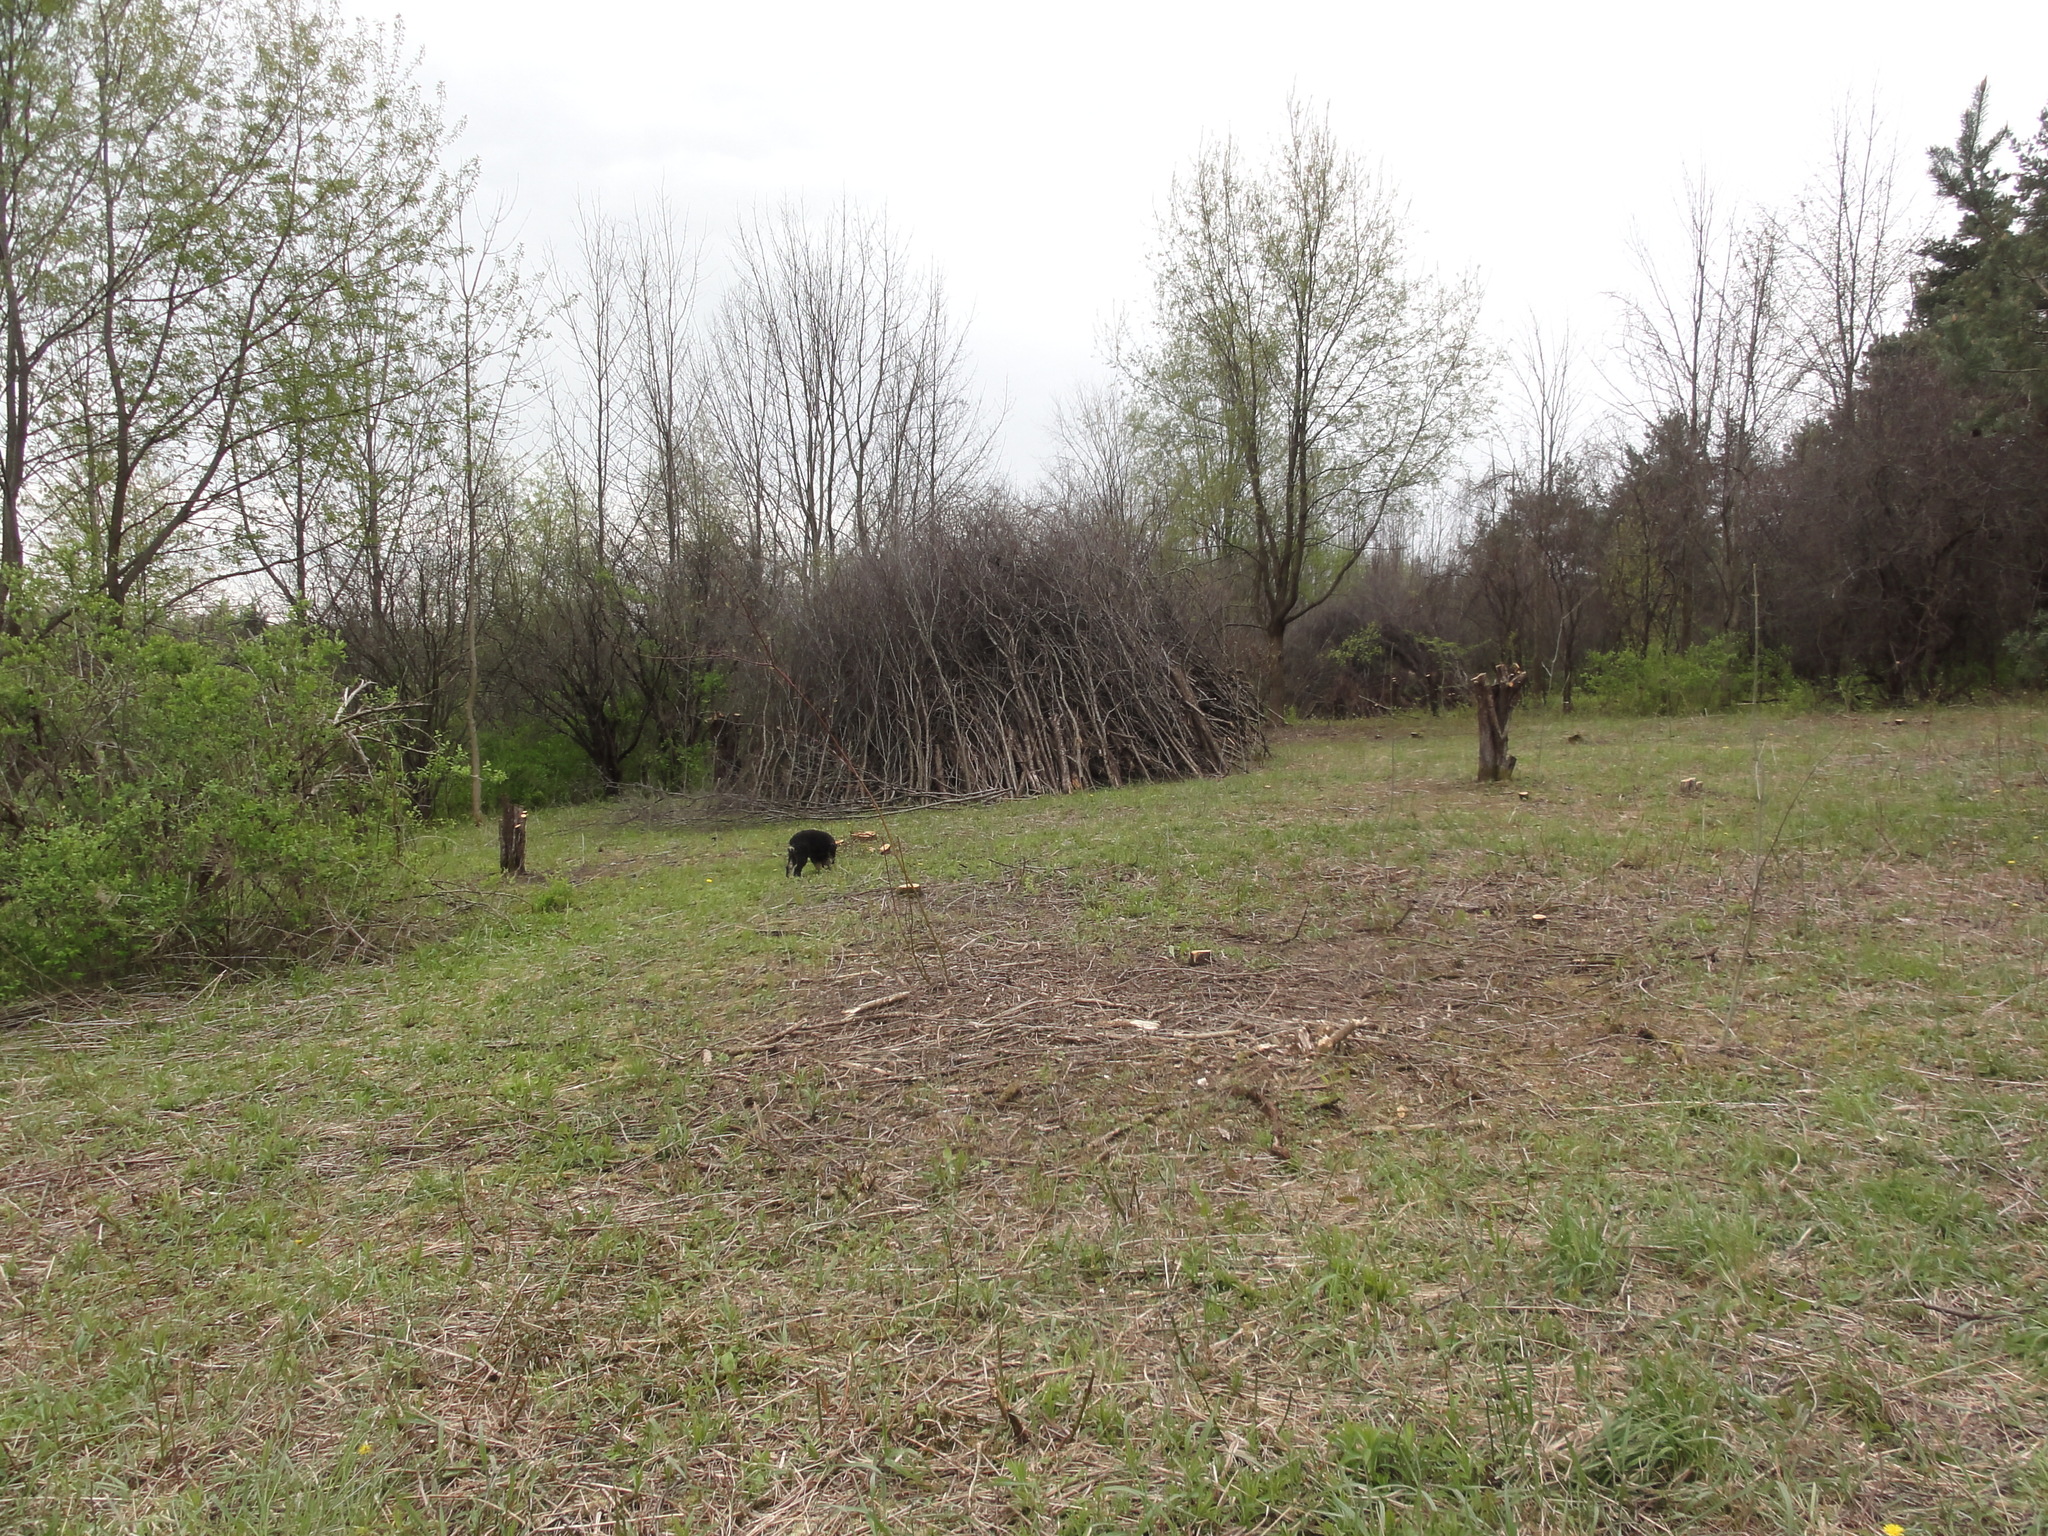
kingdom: Plantae
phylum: Tracheophyta
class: Magnoliopsida
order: Rosales
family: Rhamnaceae
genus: Rhamnus
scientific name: Rhamnus cathartica
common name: Common buckthorn
